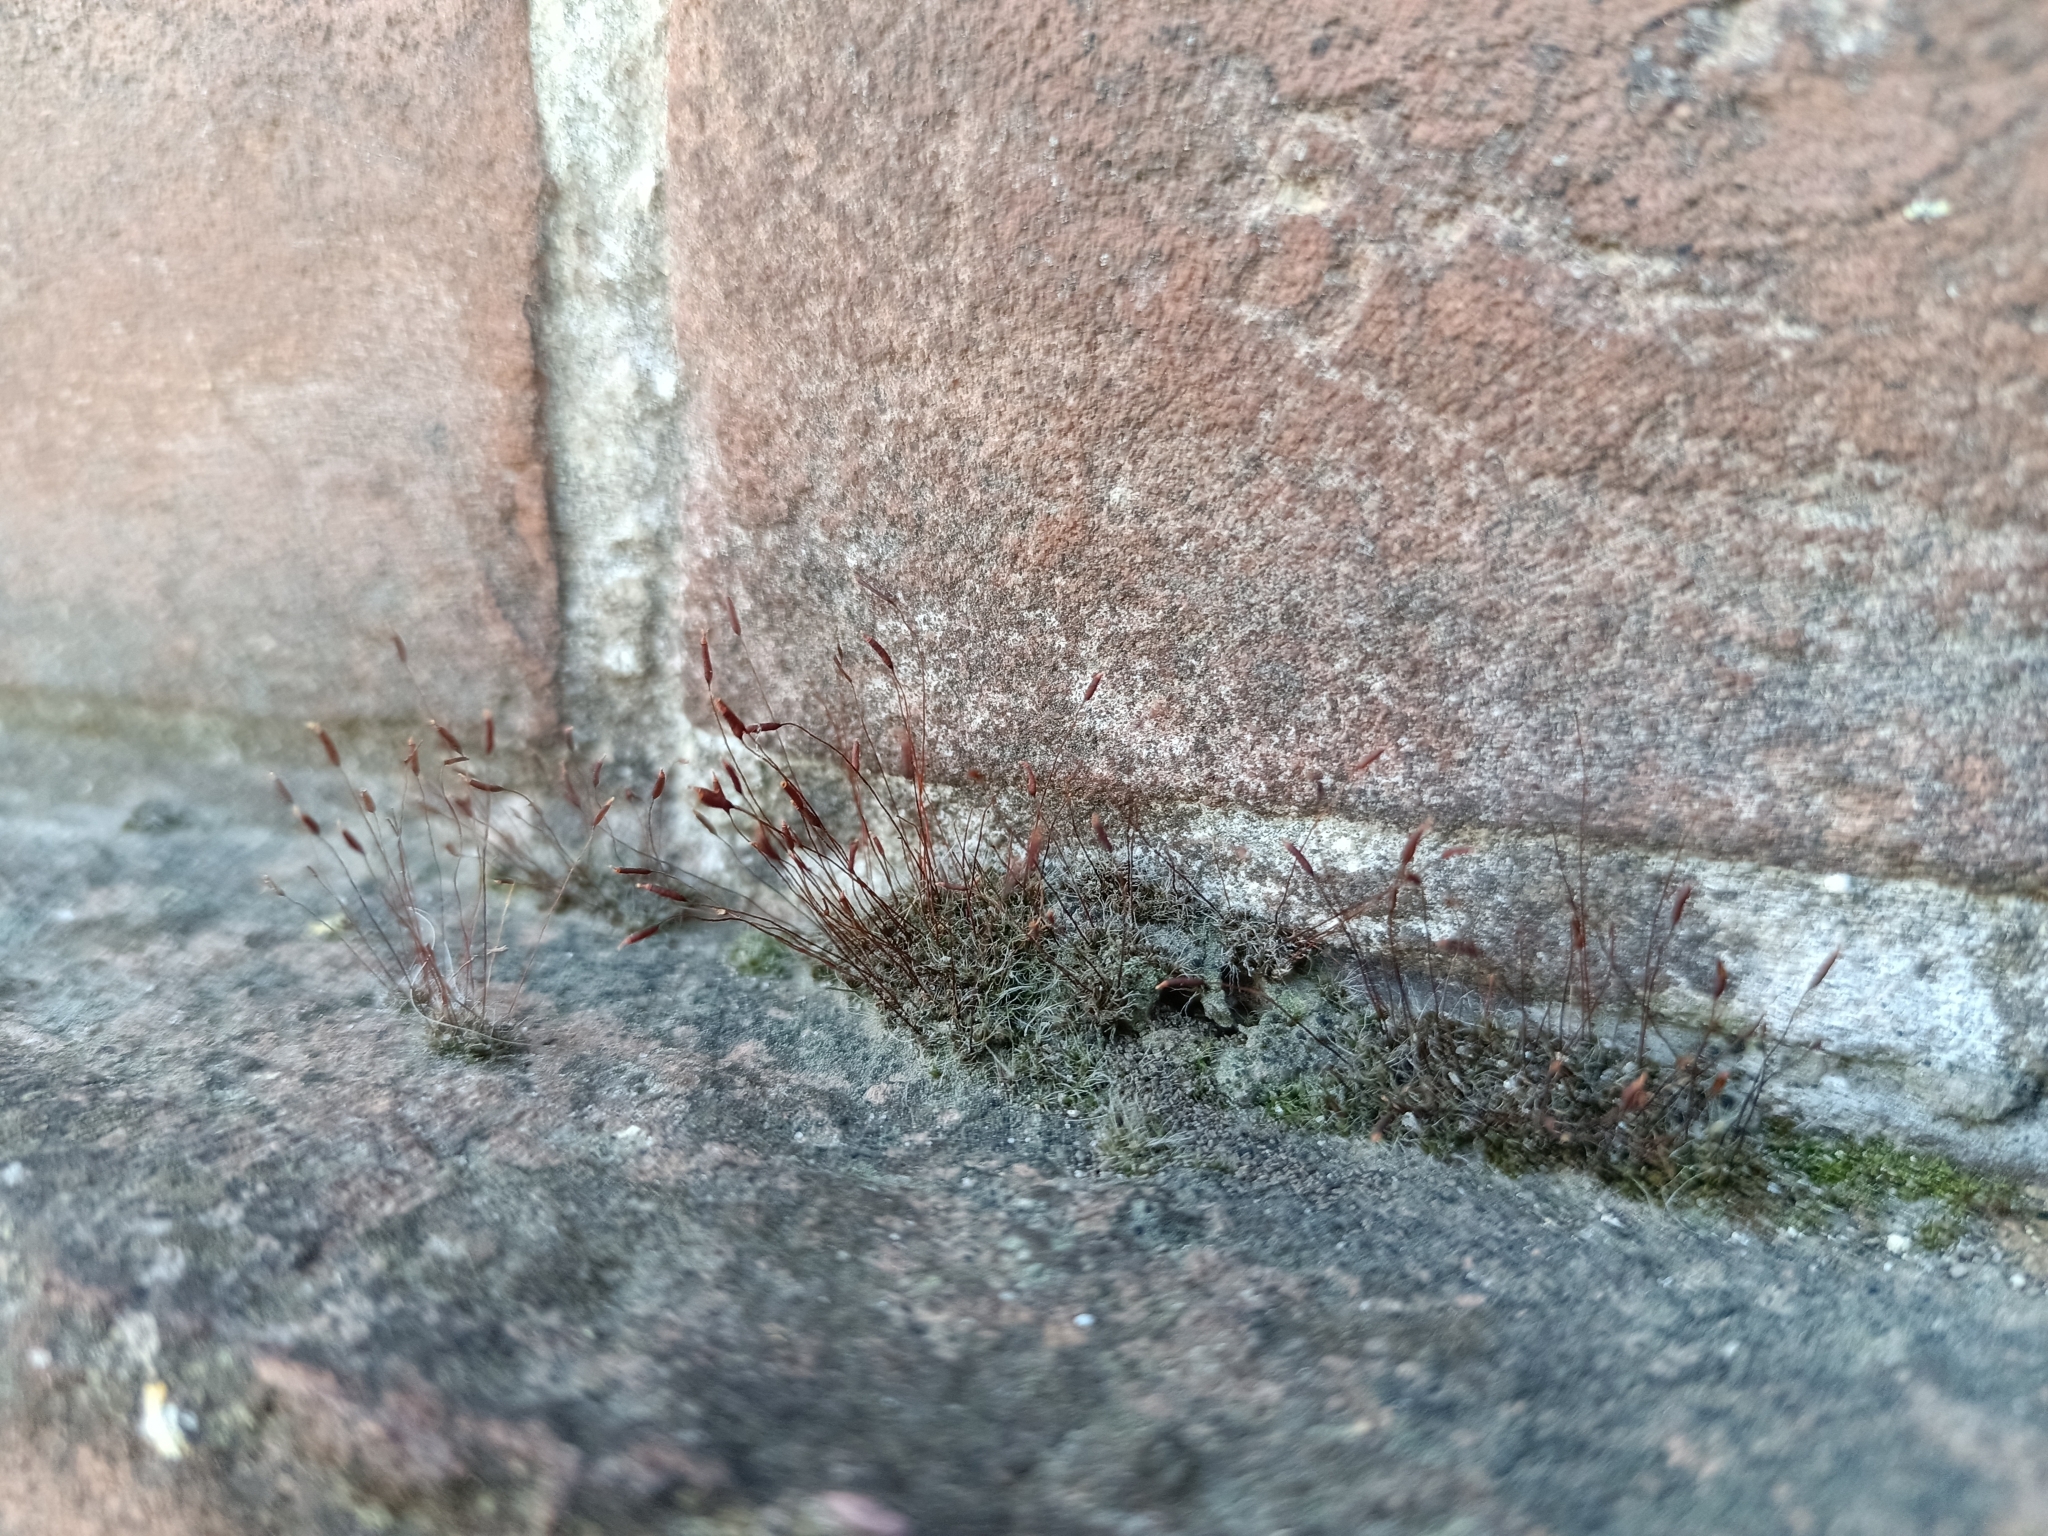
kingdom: Plantae
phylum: Bryophyta
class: Bryopsida
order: Pottiales
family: Pottiaceae
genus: Tortula
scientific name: Tortula muralis
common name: Wall screw-moss
